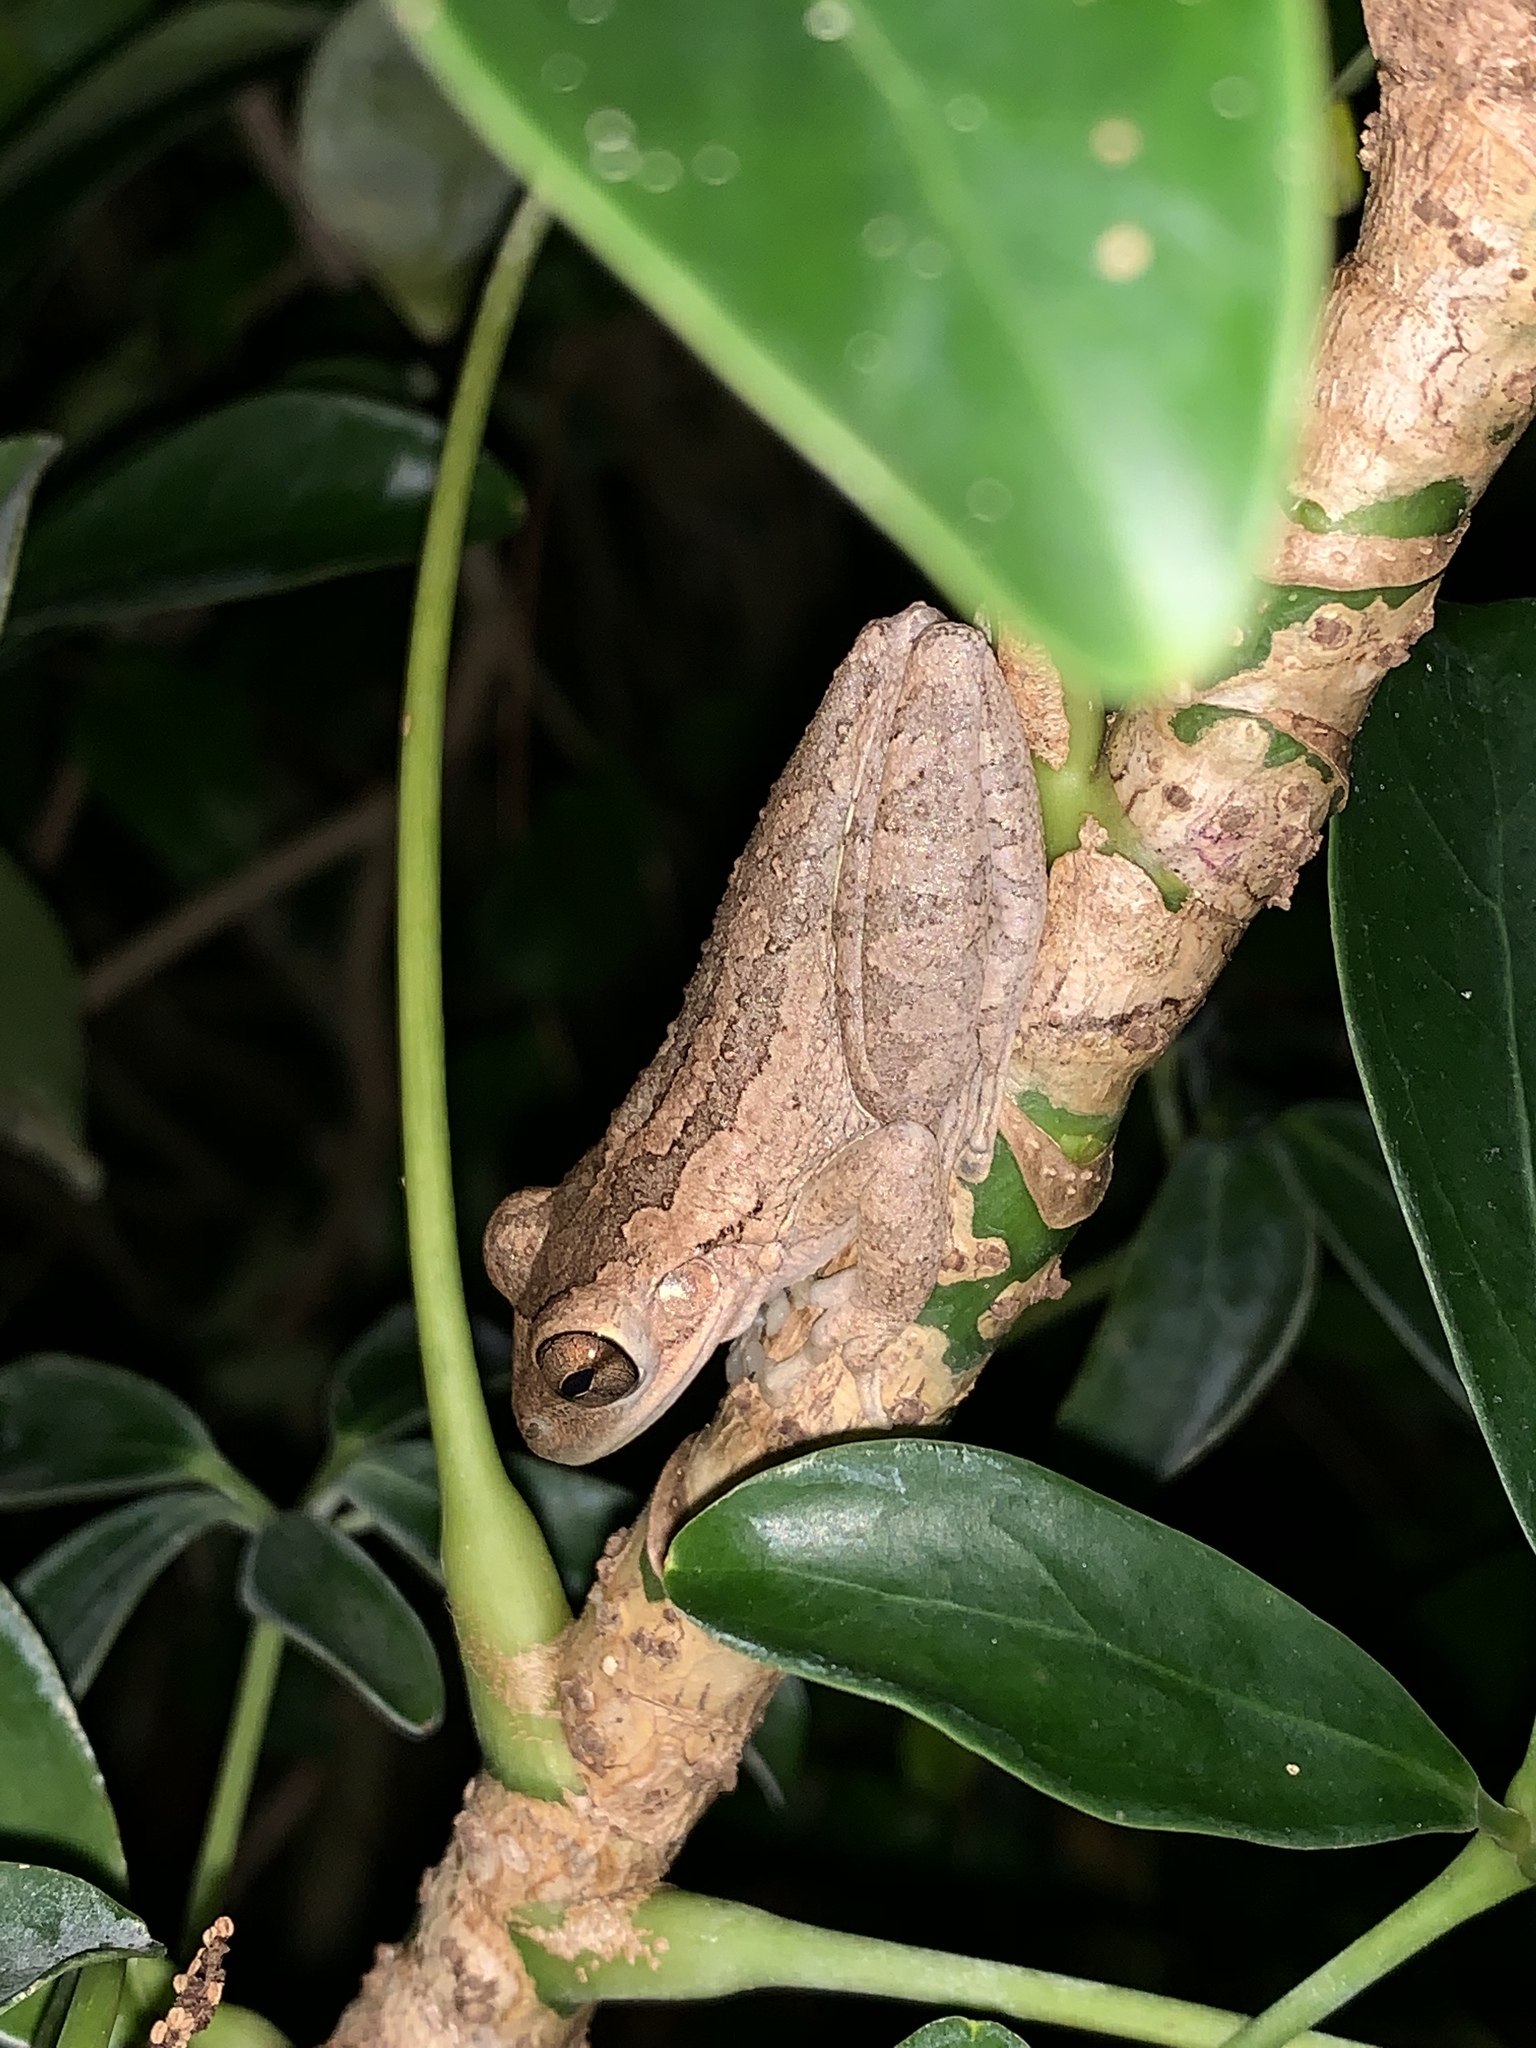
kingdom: Animalia
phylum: Chordata
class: Amphibia
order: Anura
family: Hylidae
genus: Osteopilus
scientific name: Osteopilus septentrionalis
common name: Cuban treefrog
